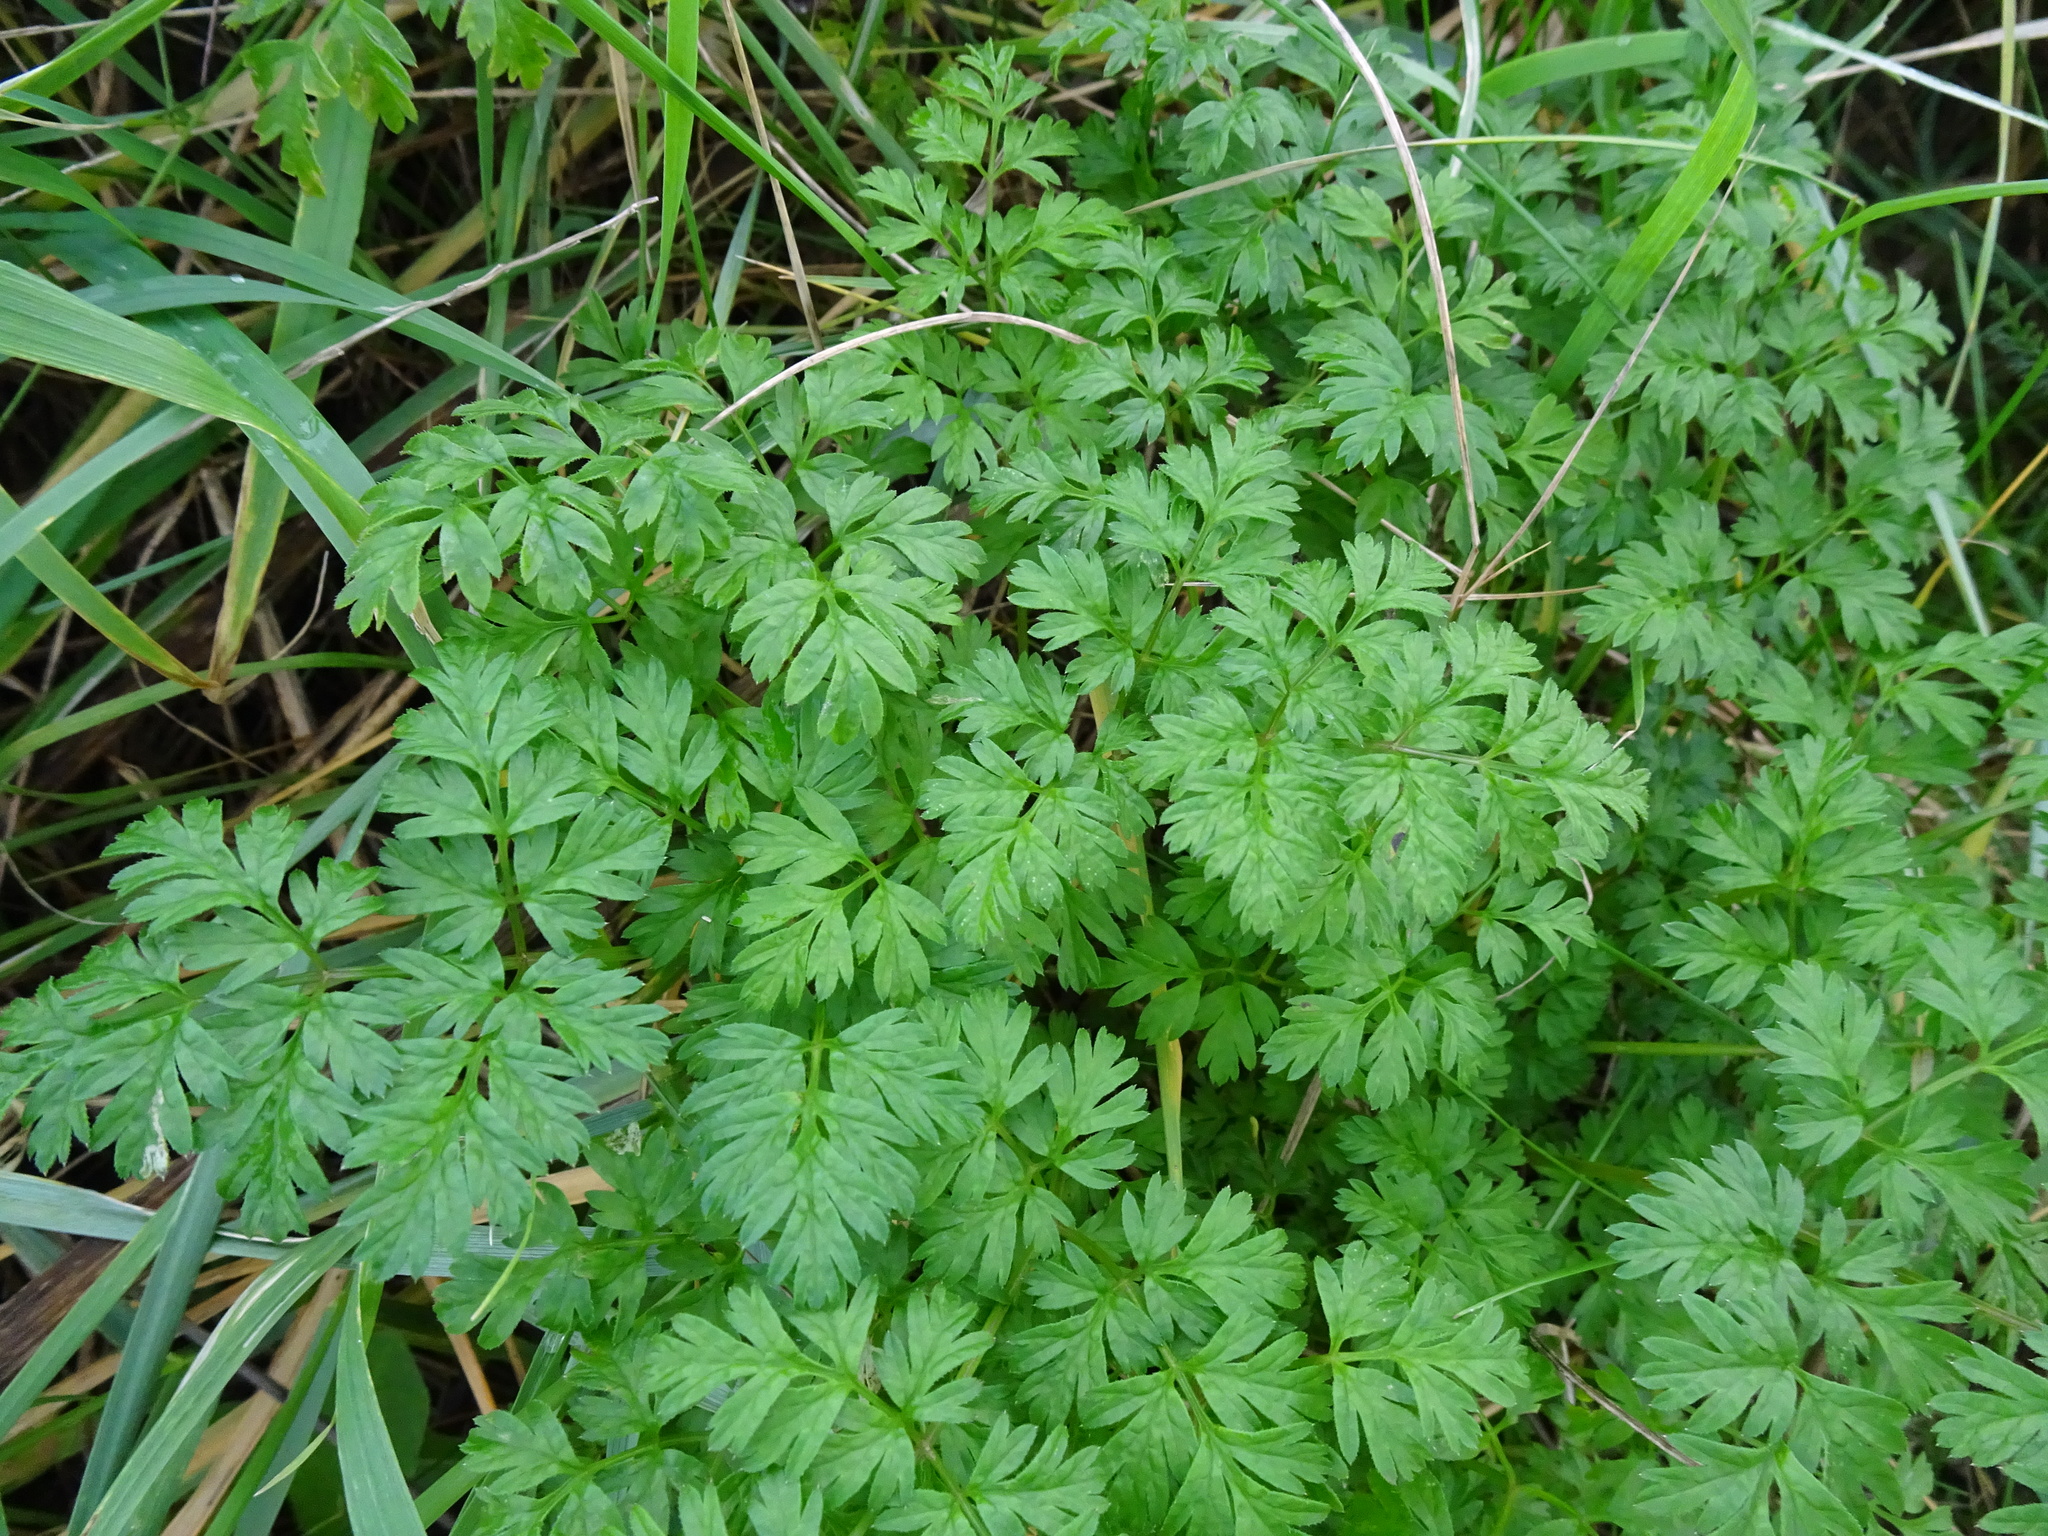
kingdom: Plantae
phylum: Tracheophyta
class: Magnoliopsida
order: Apiales
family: Apiaceae
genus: Anthriscus
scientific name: Anthriscus sylvestris
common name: Cow parsley
